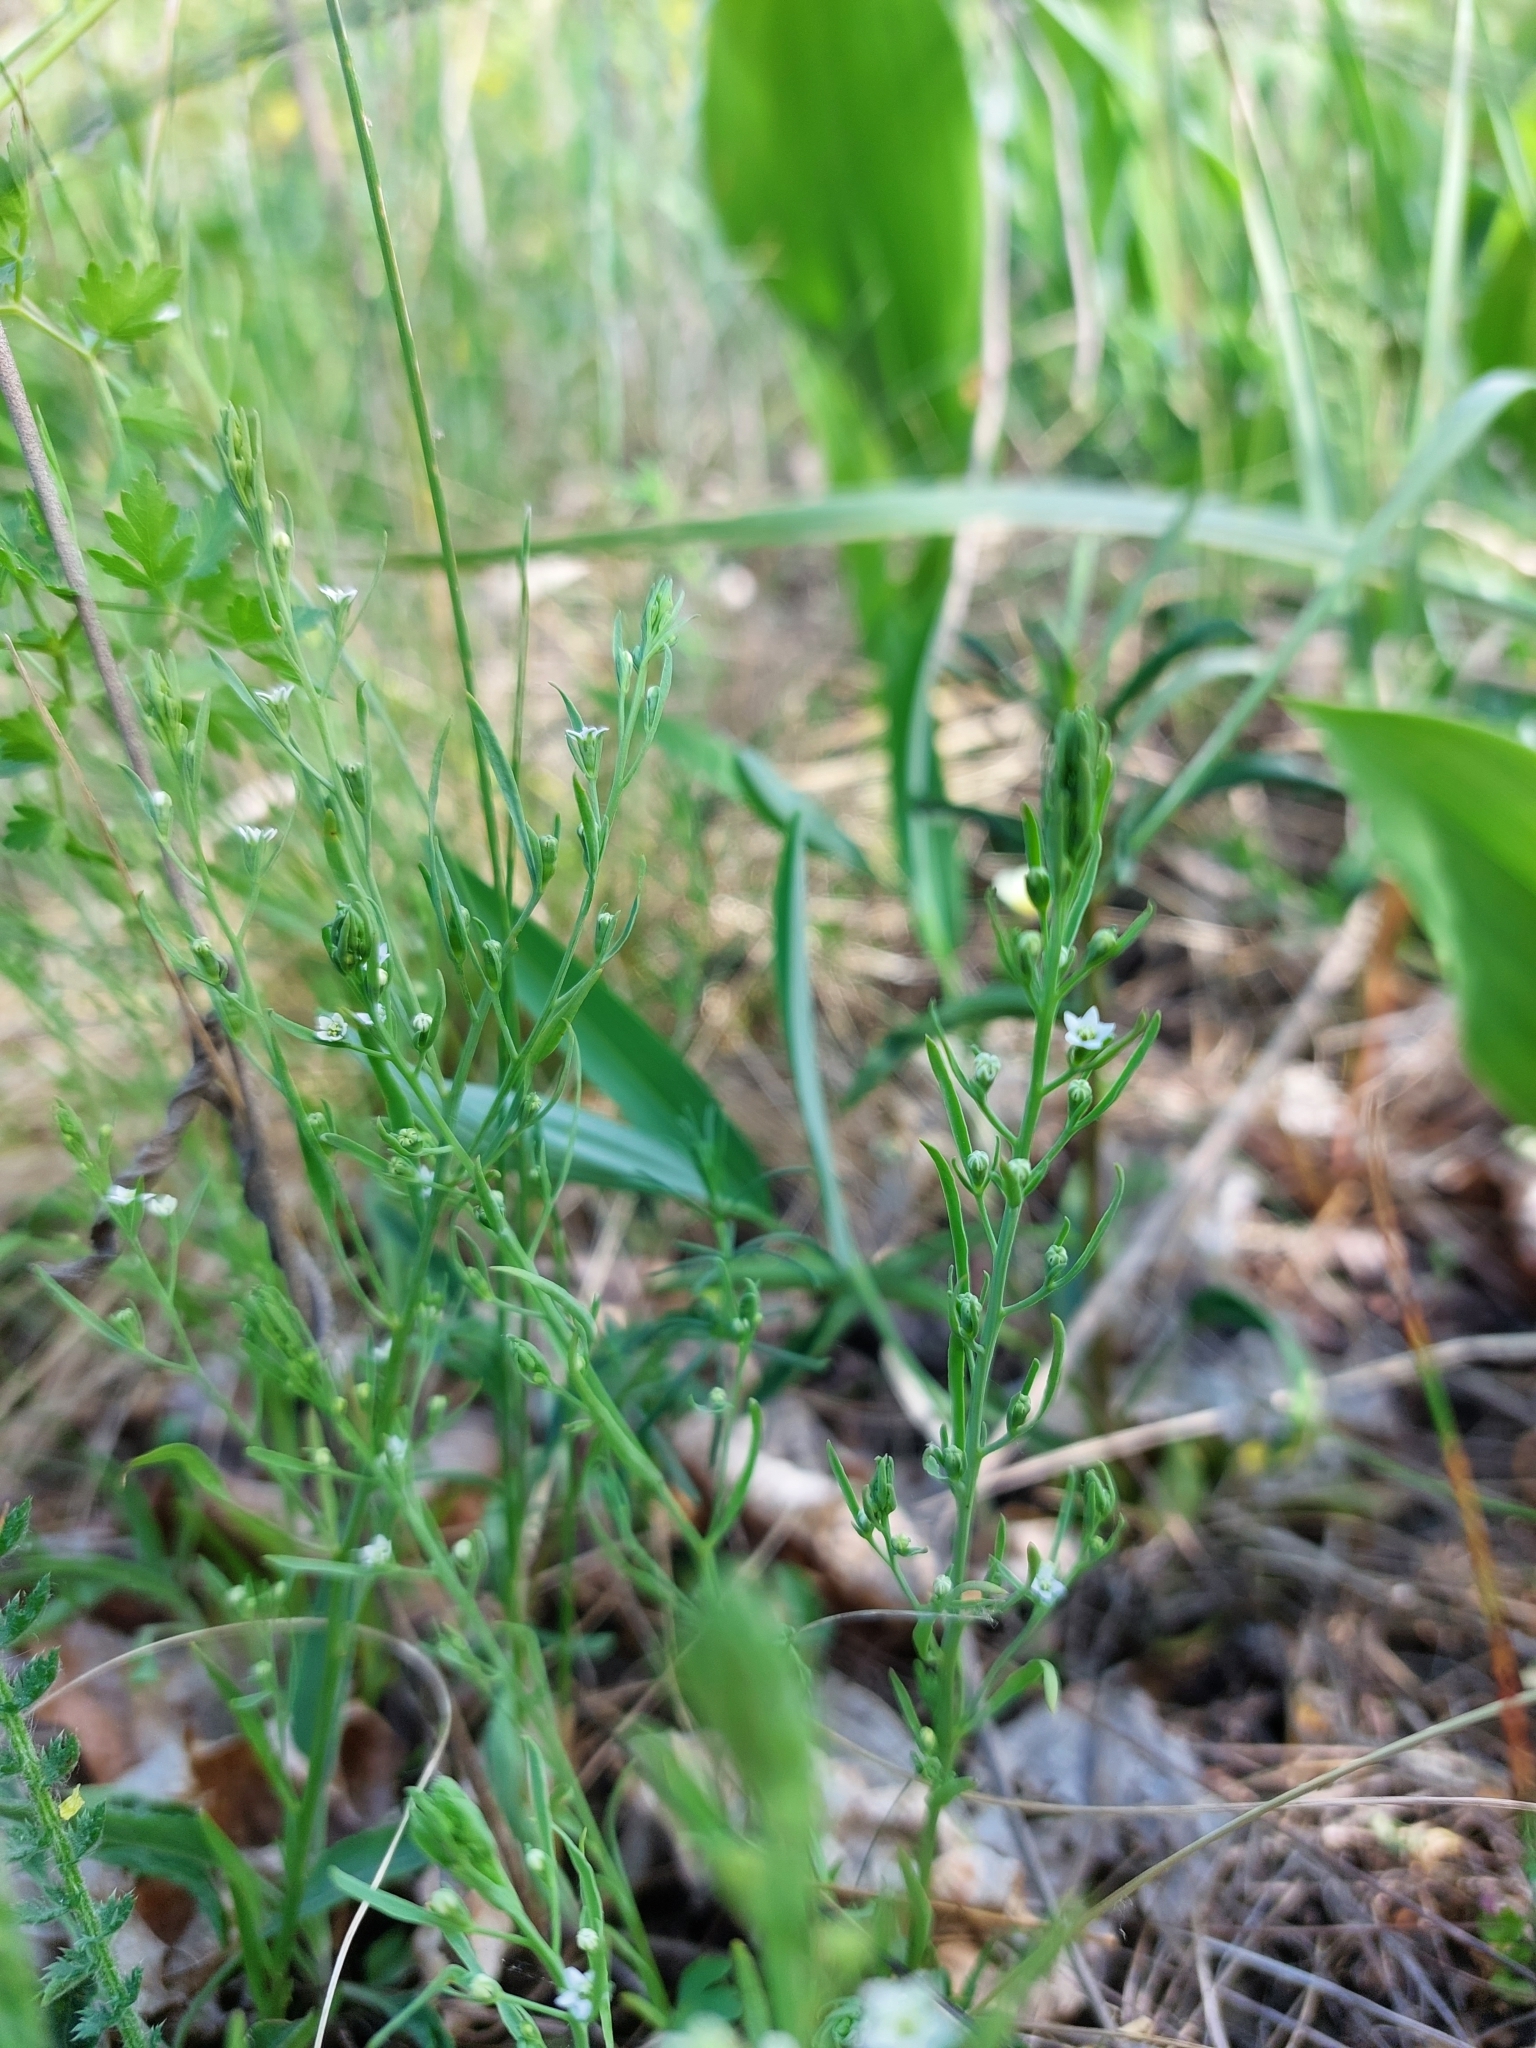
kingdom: Plantae
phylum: Tracheophyta
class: Magnoliopsida
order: Santalales
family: Thesiaceae
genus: Thesium
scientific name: Thesium ramosum
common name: Field thesium
